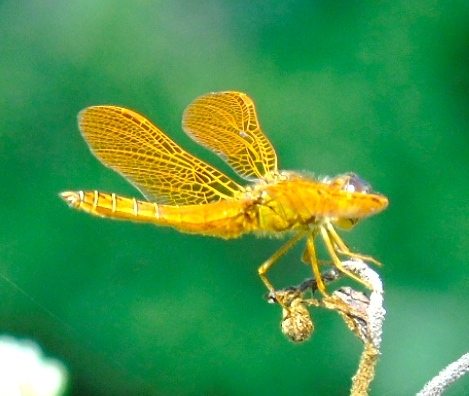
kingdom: Animalia
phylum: Arthropoda
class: Insecta
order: Odonata
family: Libellulidae
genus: Perithemis
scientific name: Perithemis intensa
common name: Mexican amberwing
